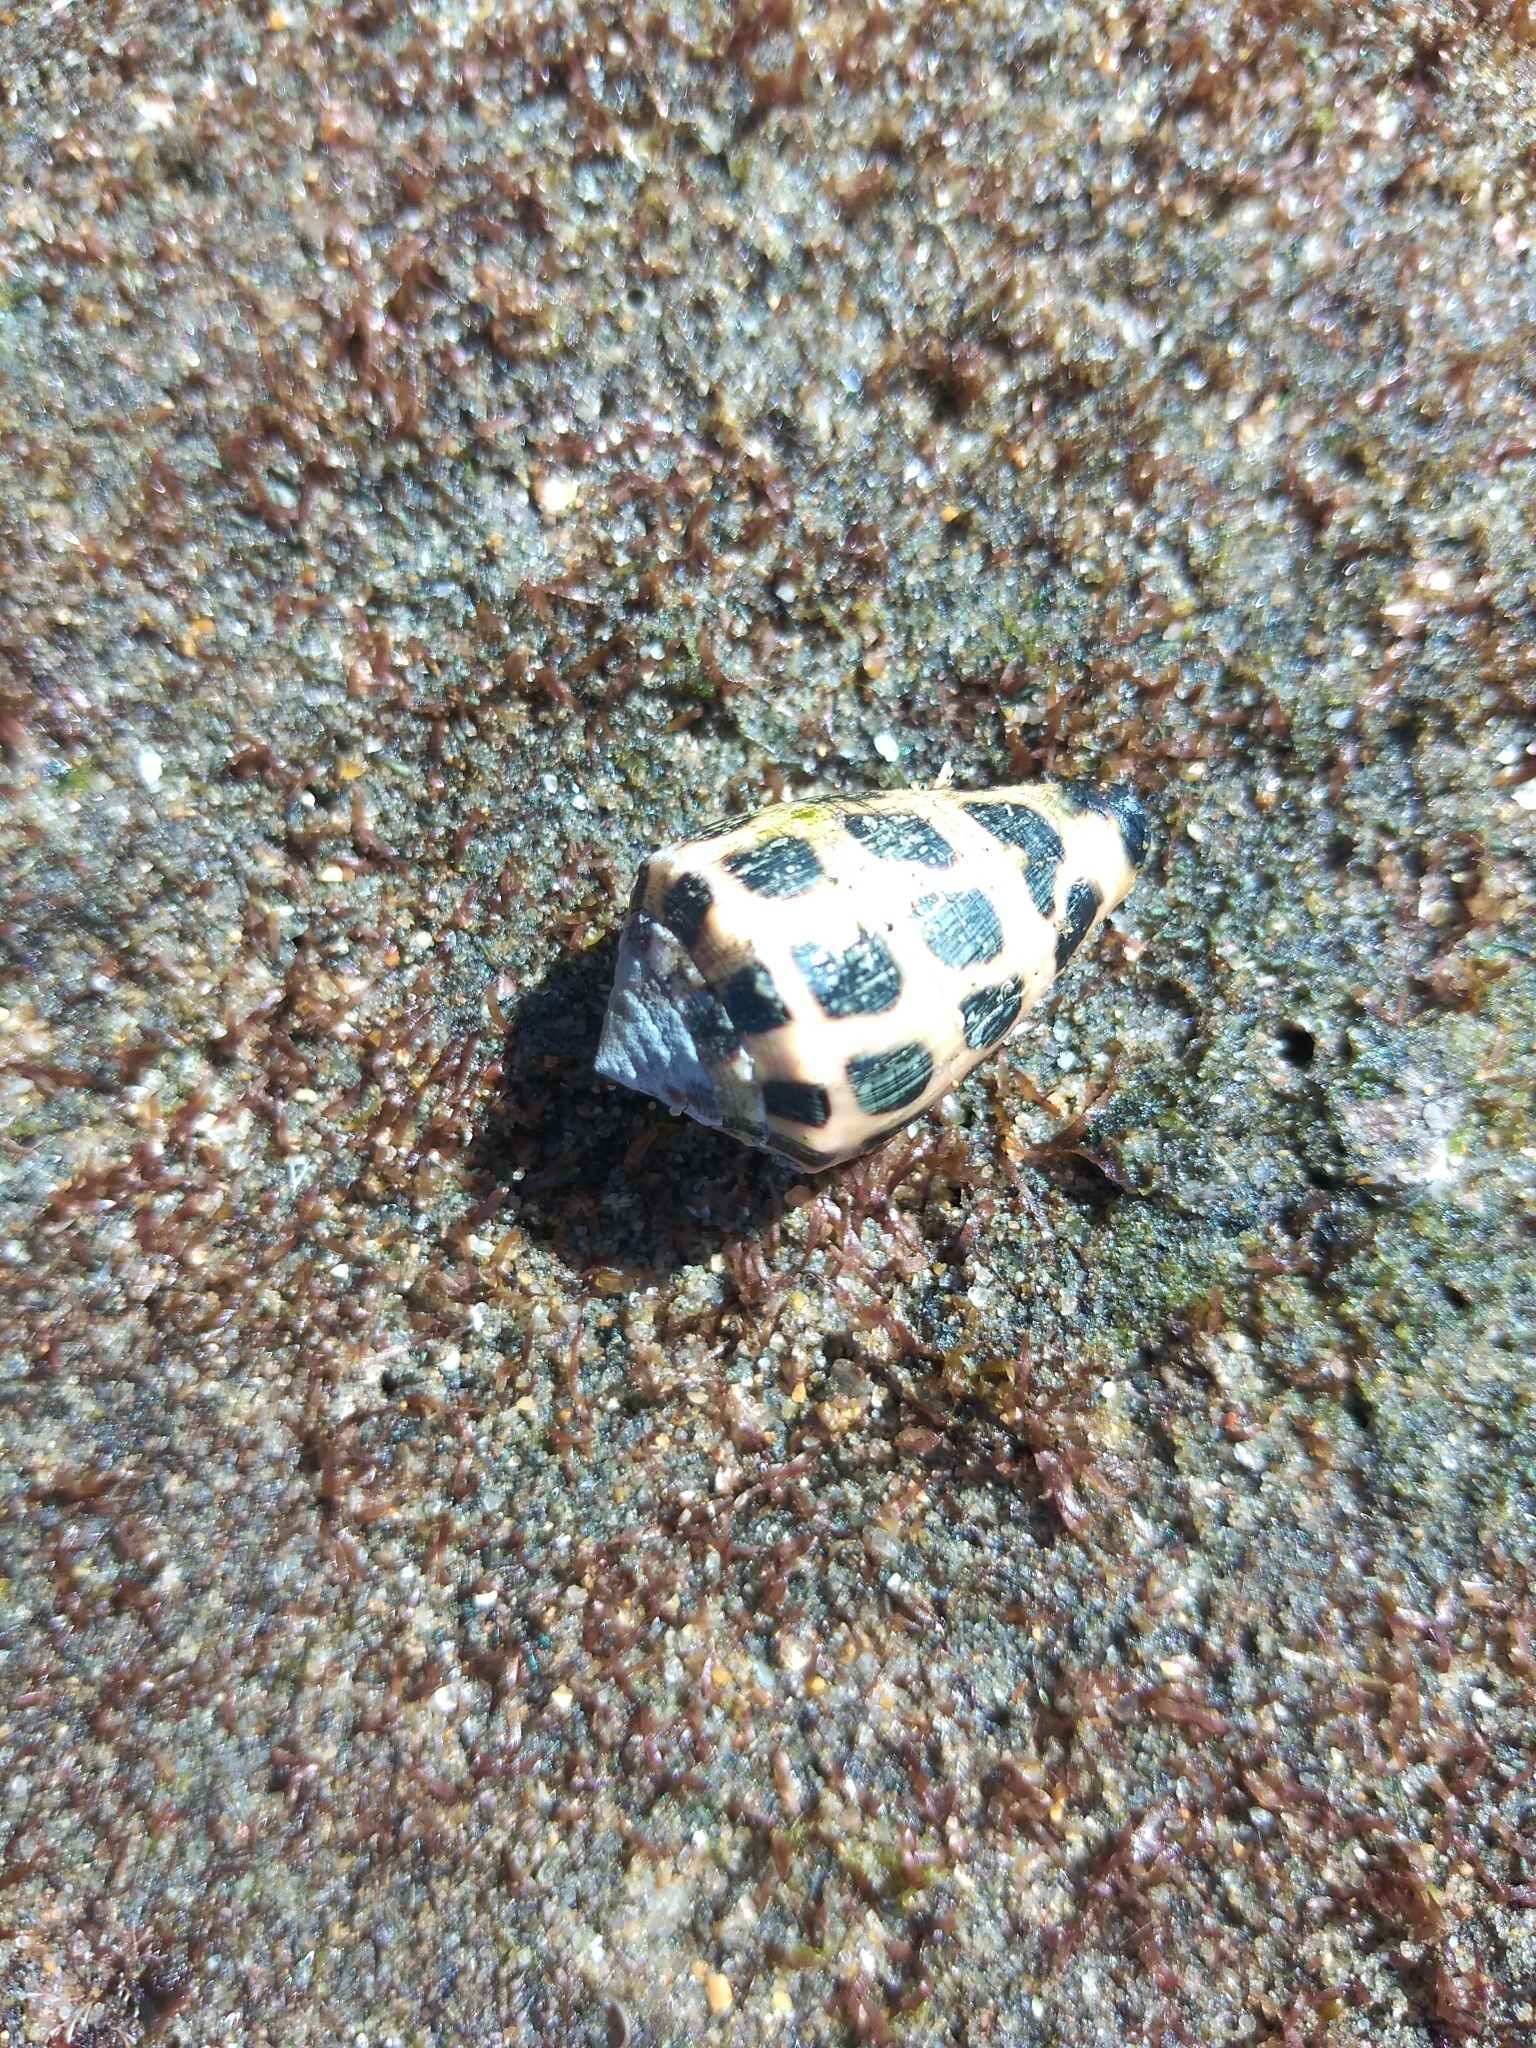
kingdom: Animalia
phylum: Mollusca
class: Gastropoda
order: Neogastropoda
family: Conidae
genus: Conus
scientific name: Conus ebraeus
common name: Hebrew cone
